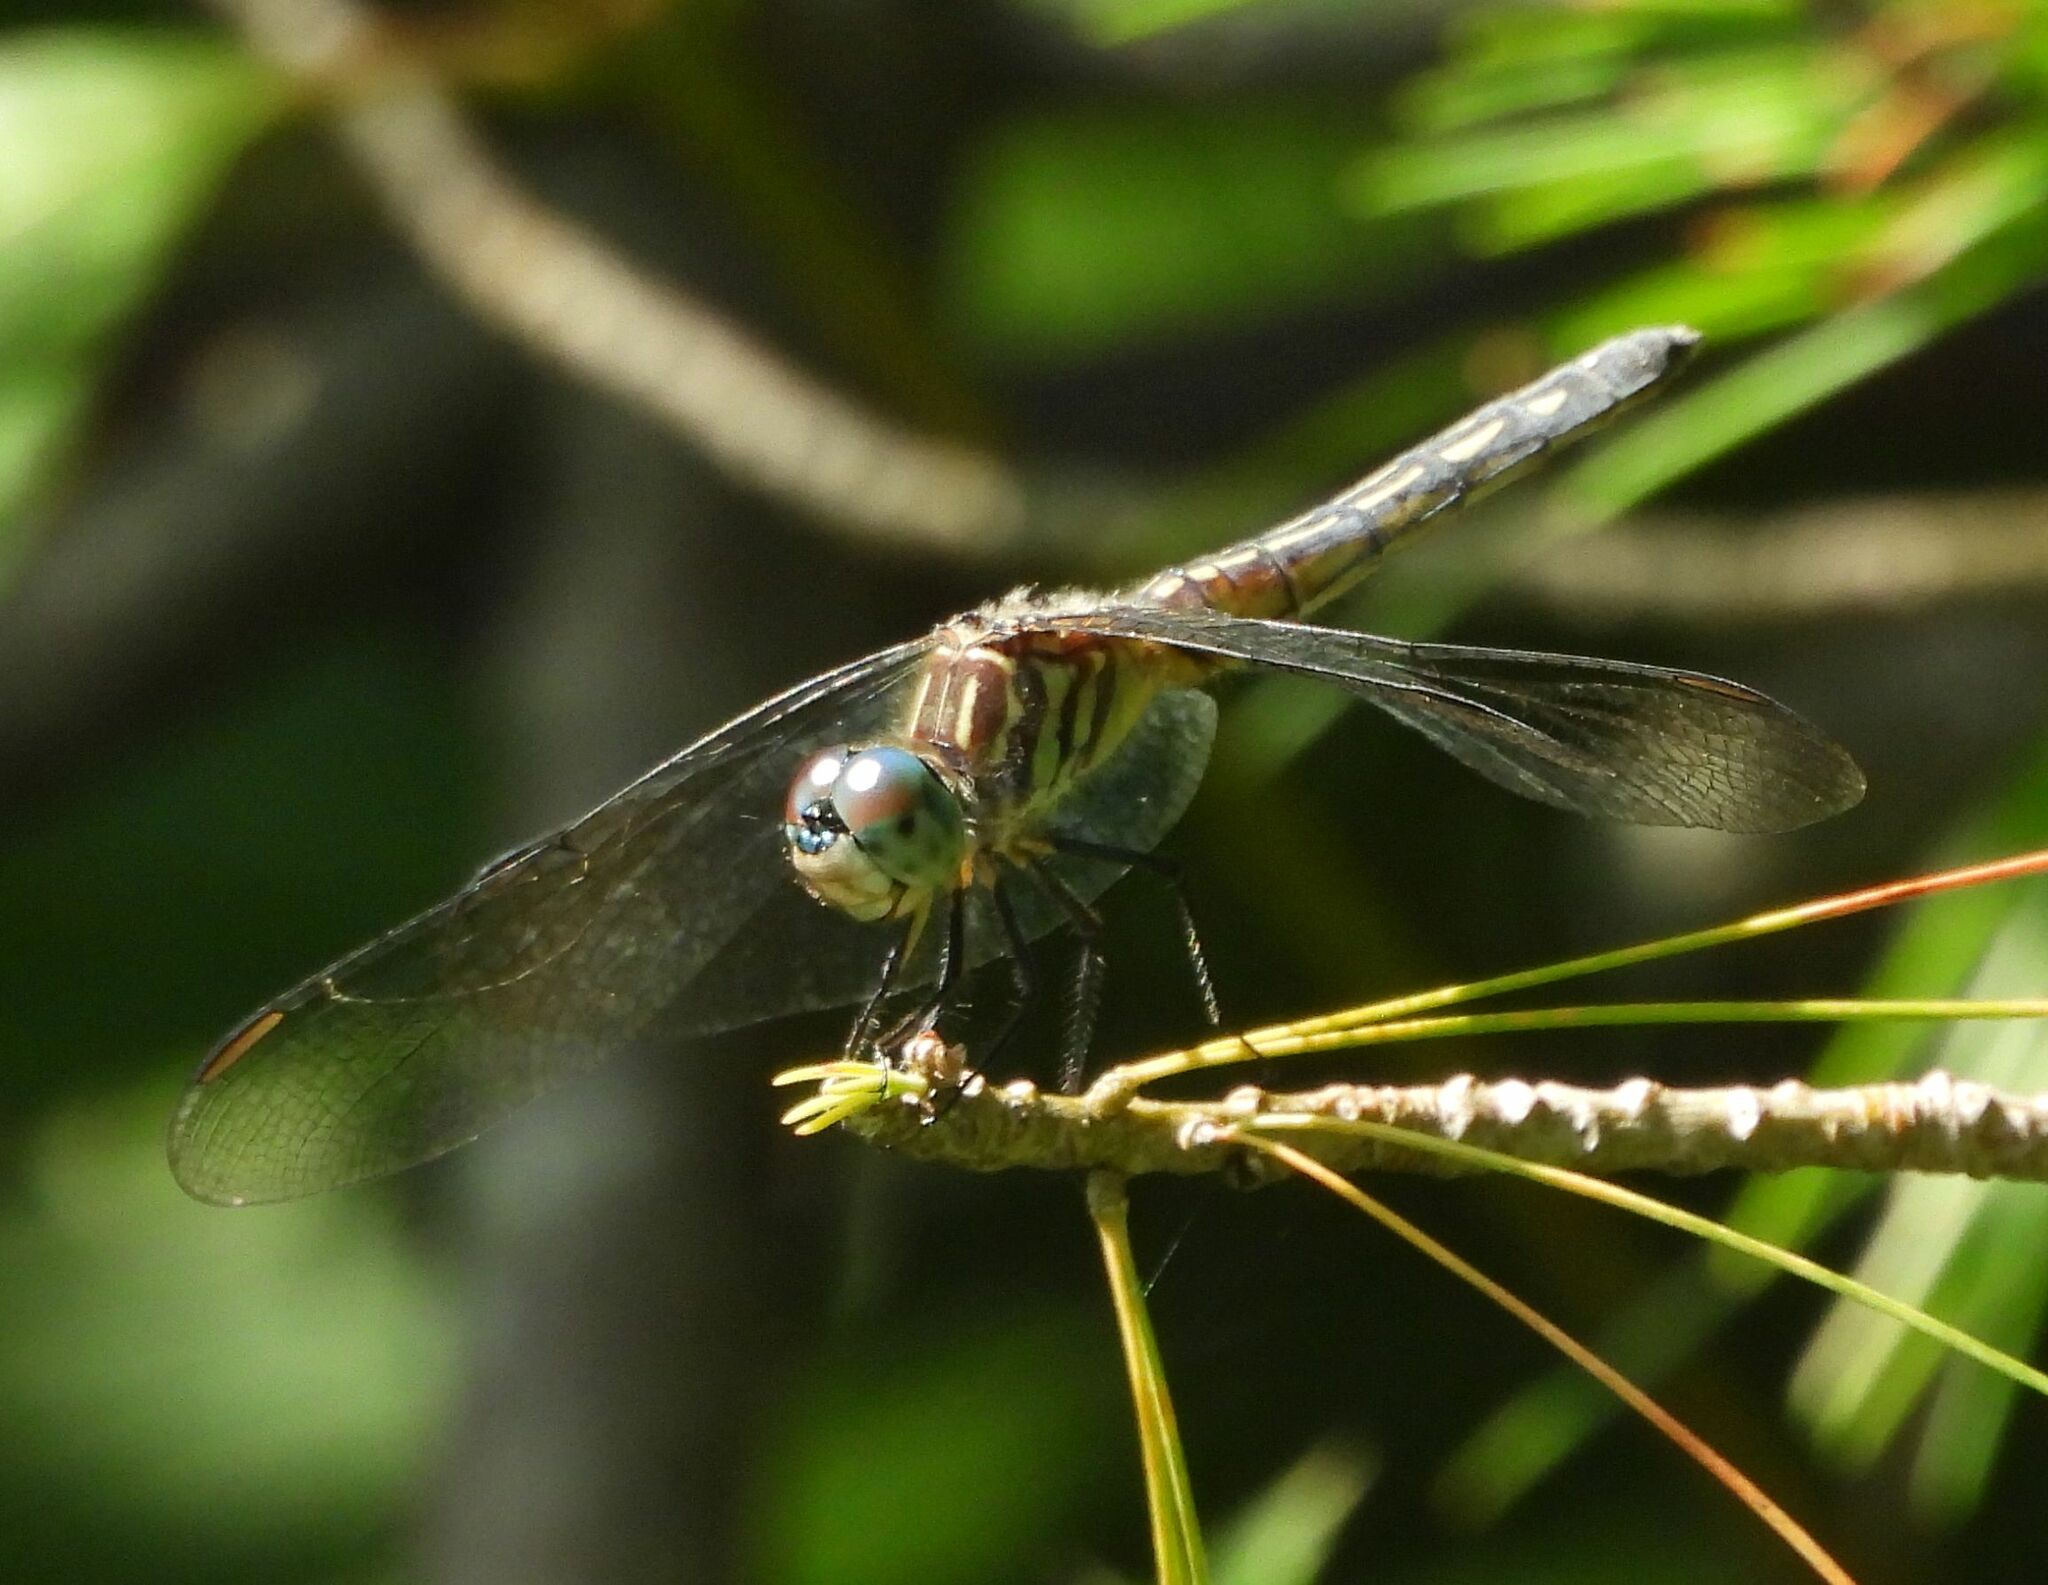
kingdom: Animalia
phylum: Arthropoda
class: Insecta
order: Odonata
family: Libellulidae
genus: Pachydiplax
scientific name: Pachydiplax longipennis
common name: Blue dasher
